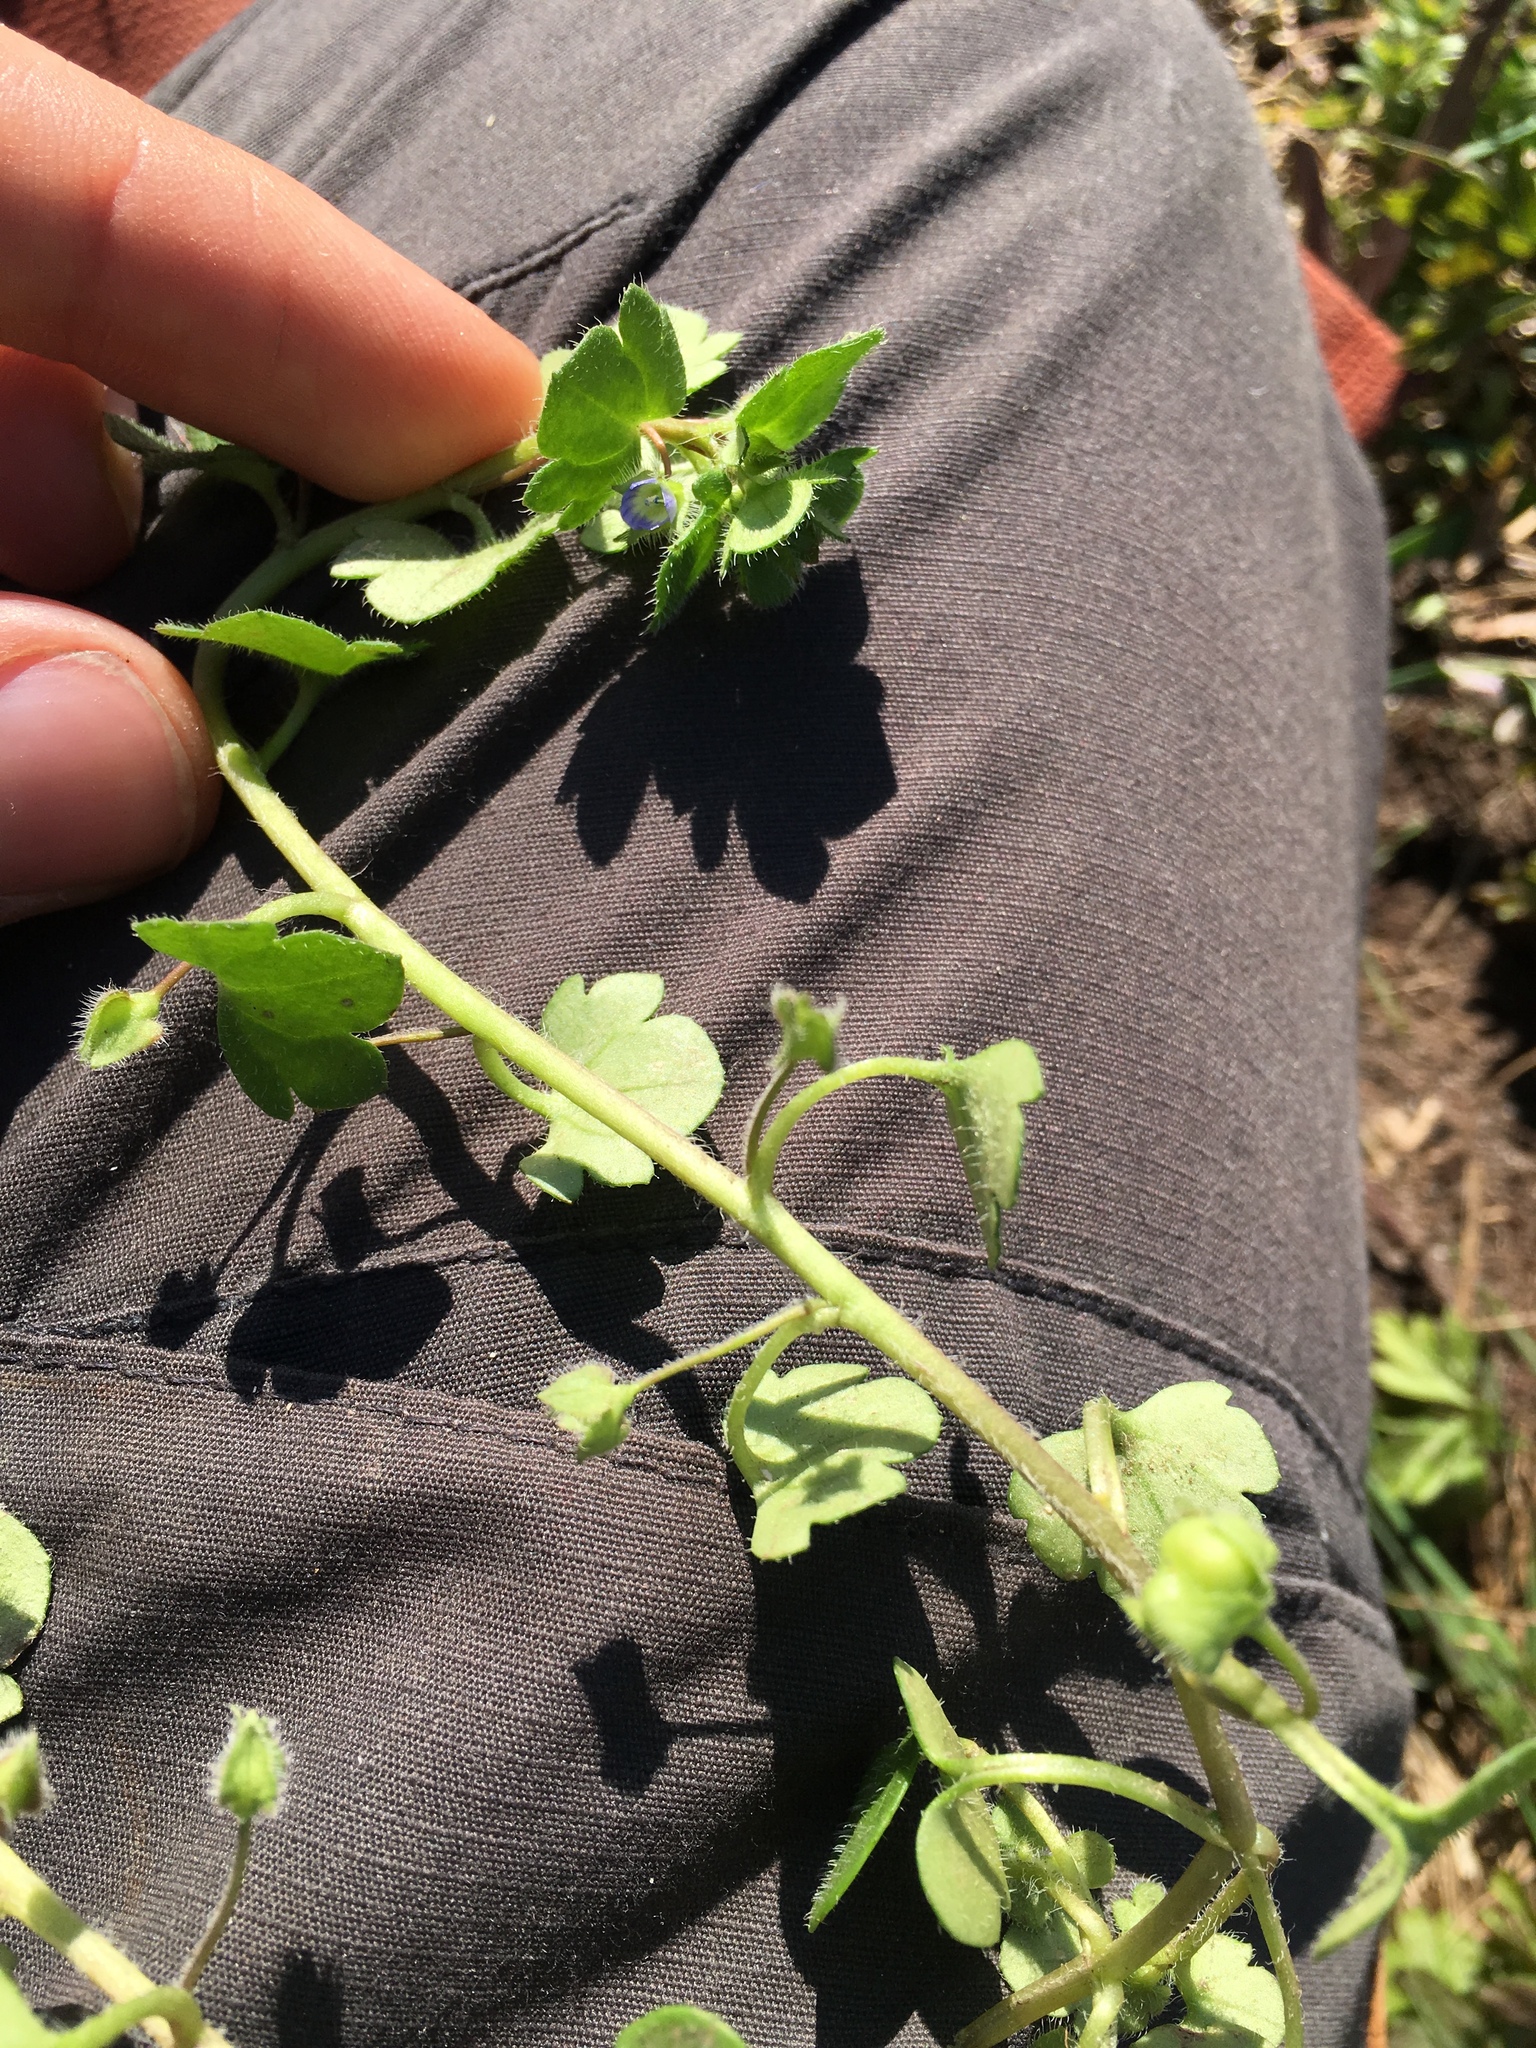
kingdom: Plantae
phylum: Tracheophyta
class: Magnoliopsida
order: Lamiales
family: Plantaginaceae
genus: Veronica
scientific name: Veronica hederifolia
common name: Ivy-leaved speedwell
